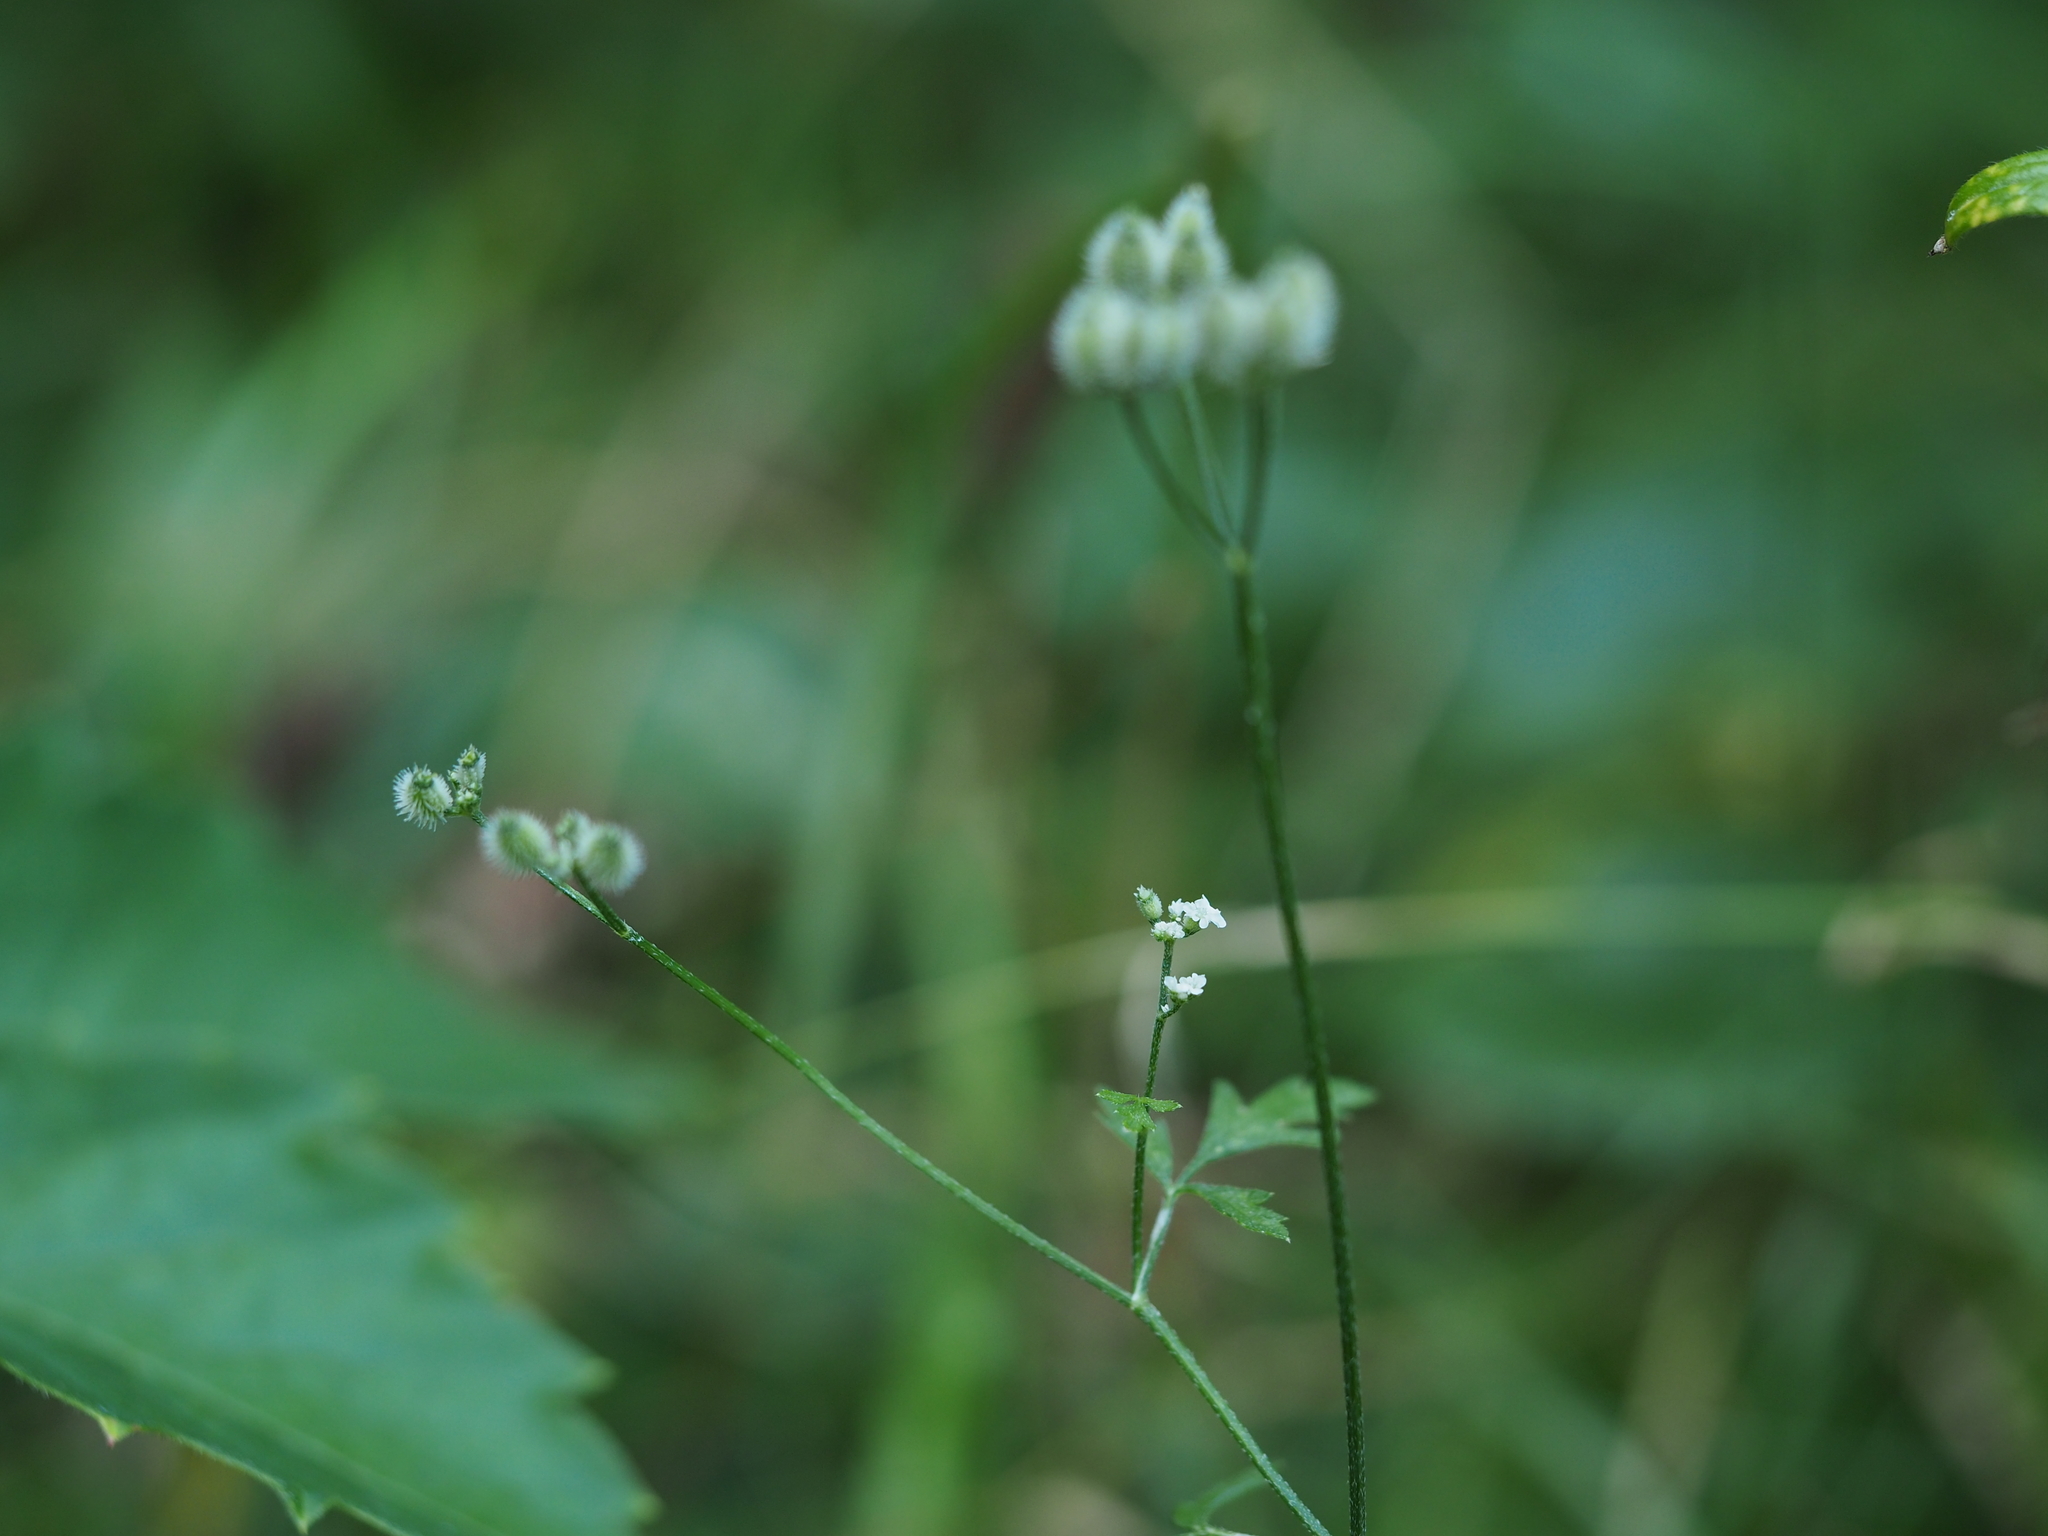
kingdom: Plantae
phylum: Tracheophyta
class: Magnoliopsida
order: Apiales
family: Apiaceae
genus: Torilis
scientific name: Torilis arvensis
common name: Spreading hedge-parsley
